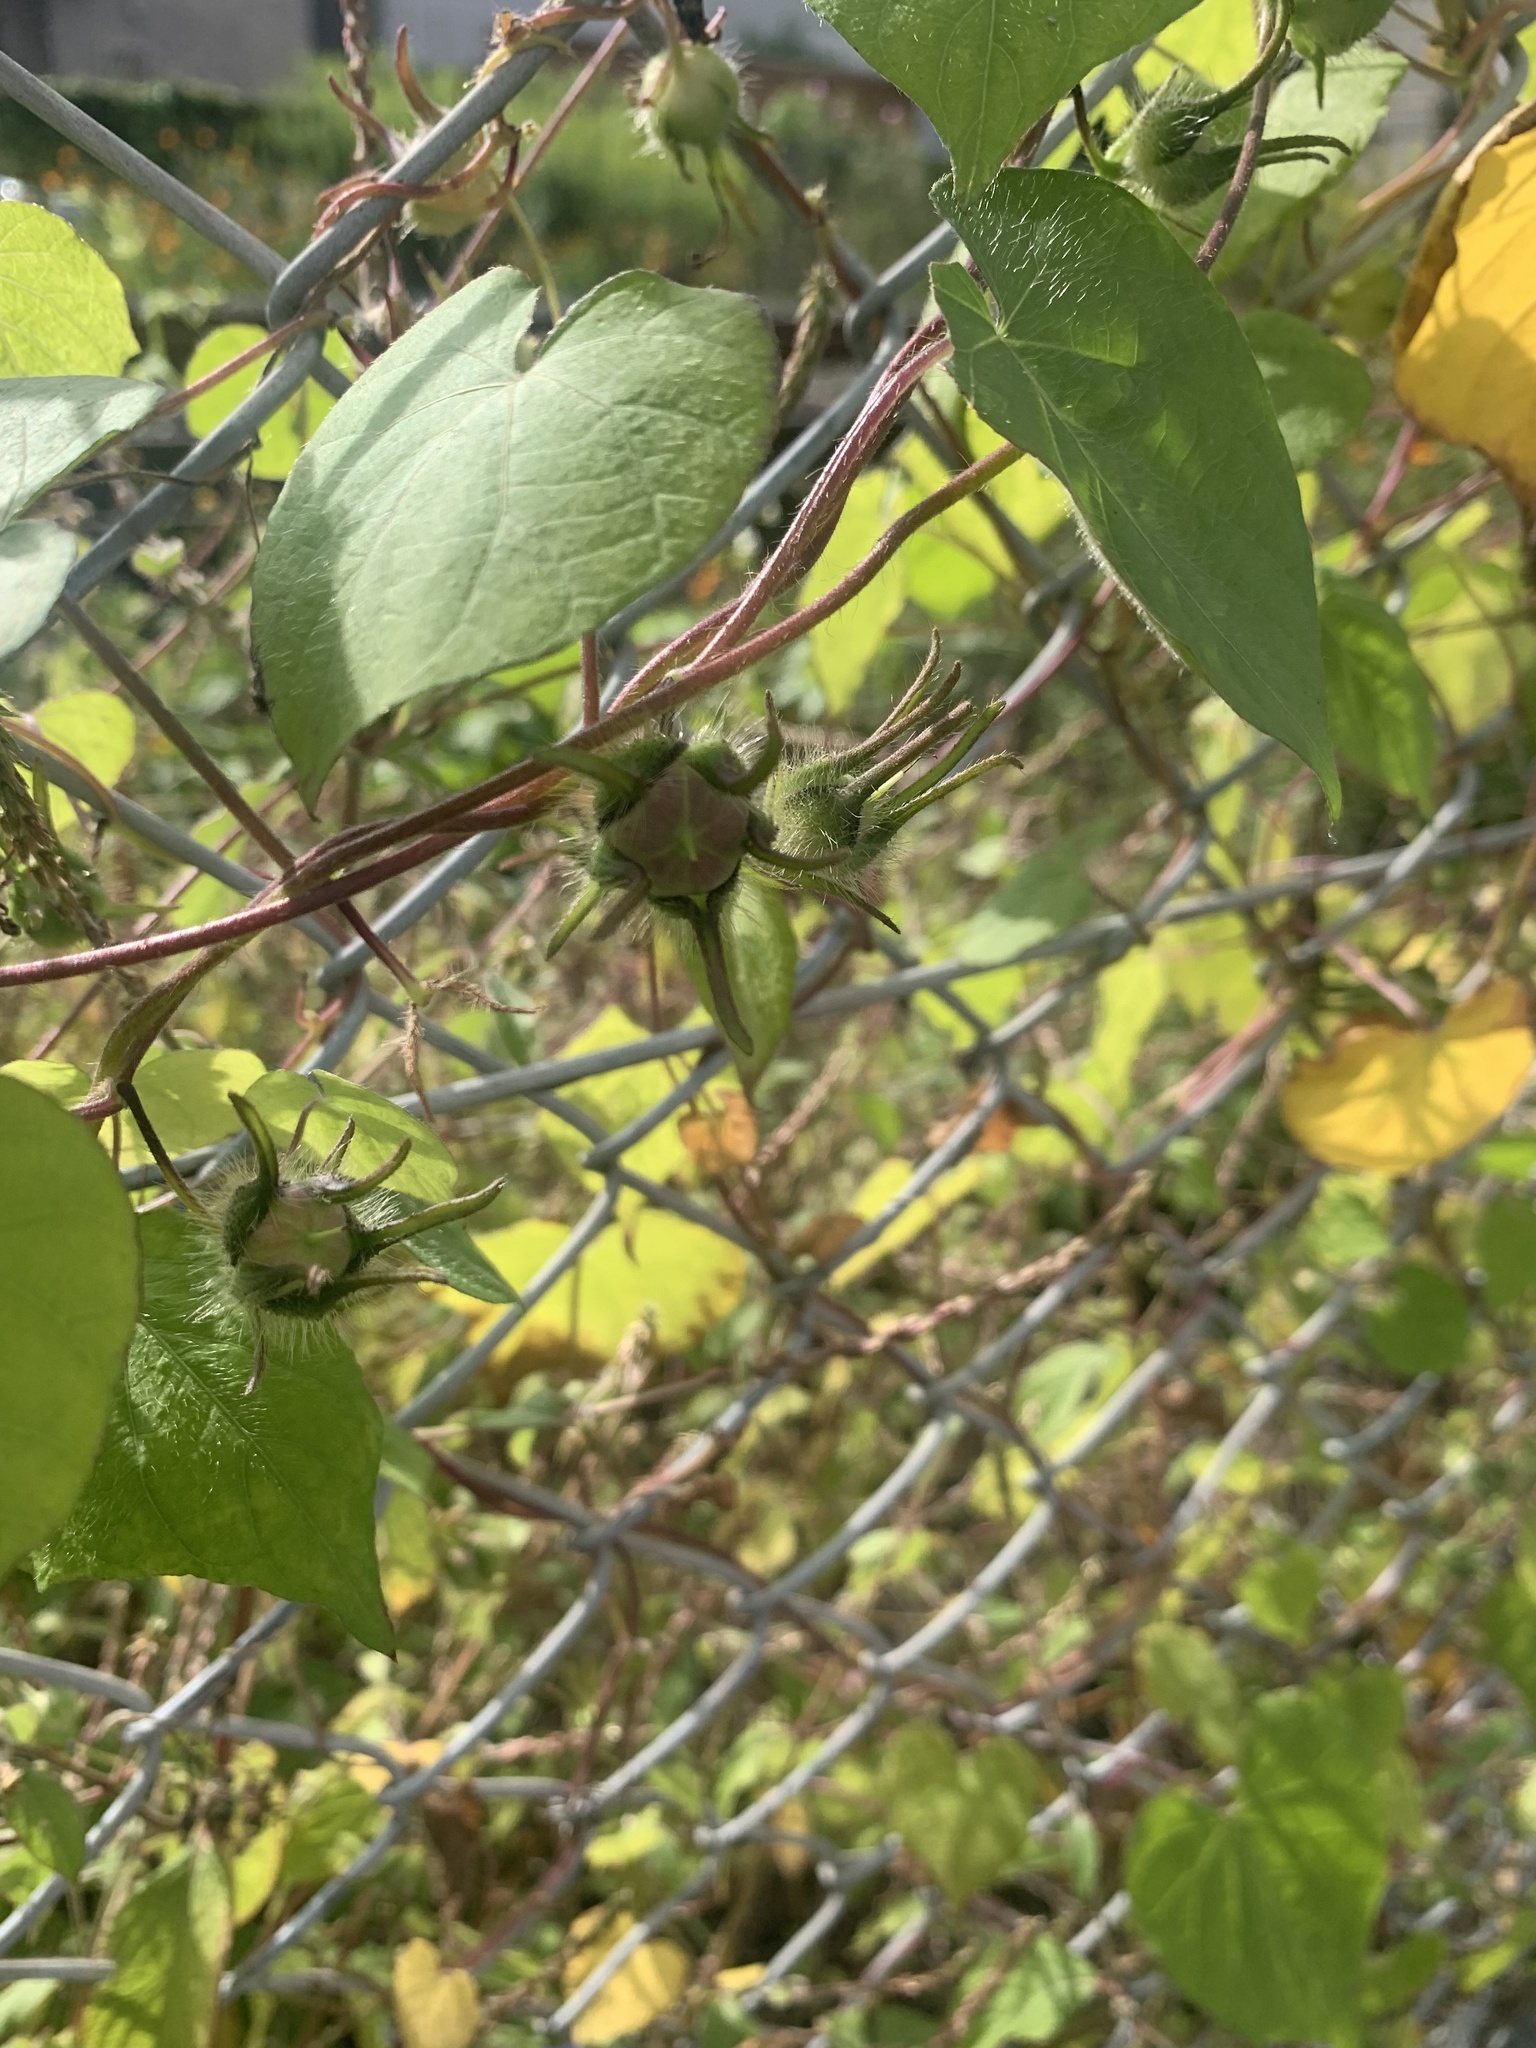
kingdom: Plantae
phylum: Tracheophyta
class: Magnoliopsida
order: Solanales
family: Convolvulaceae
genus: Ipomoea
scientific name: Ipomoea nil
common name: Japanese morning-glory
